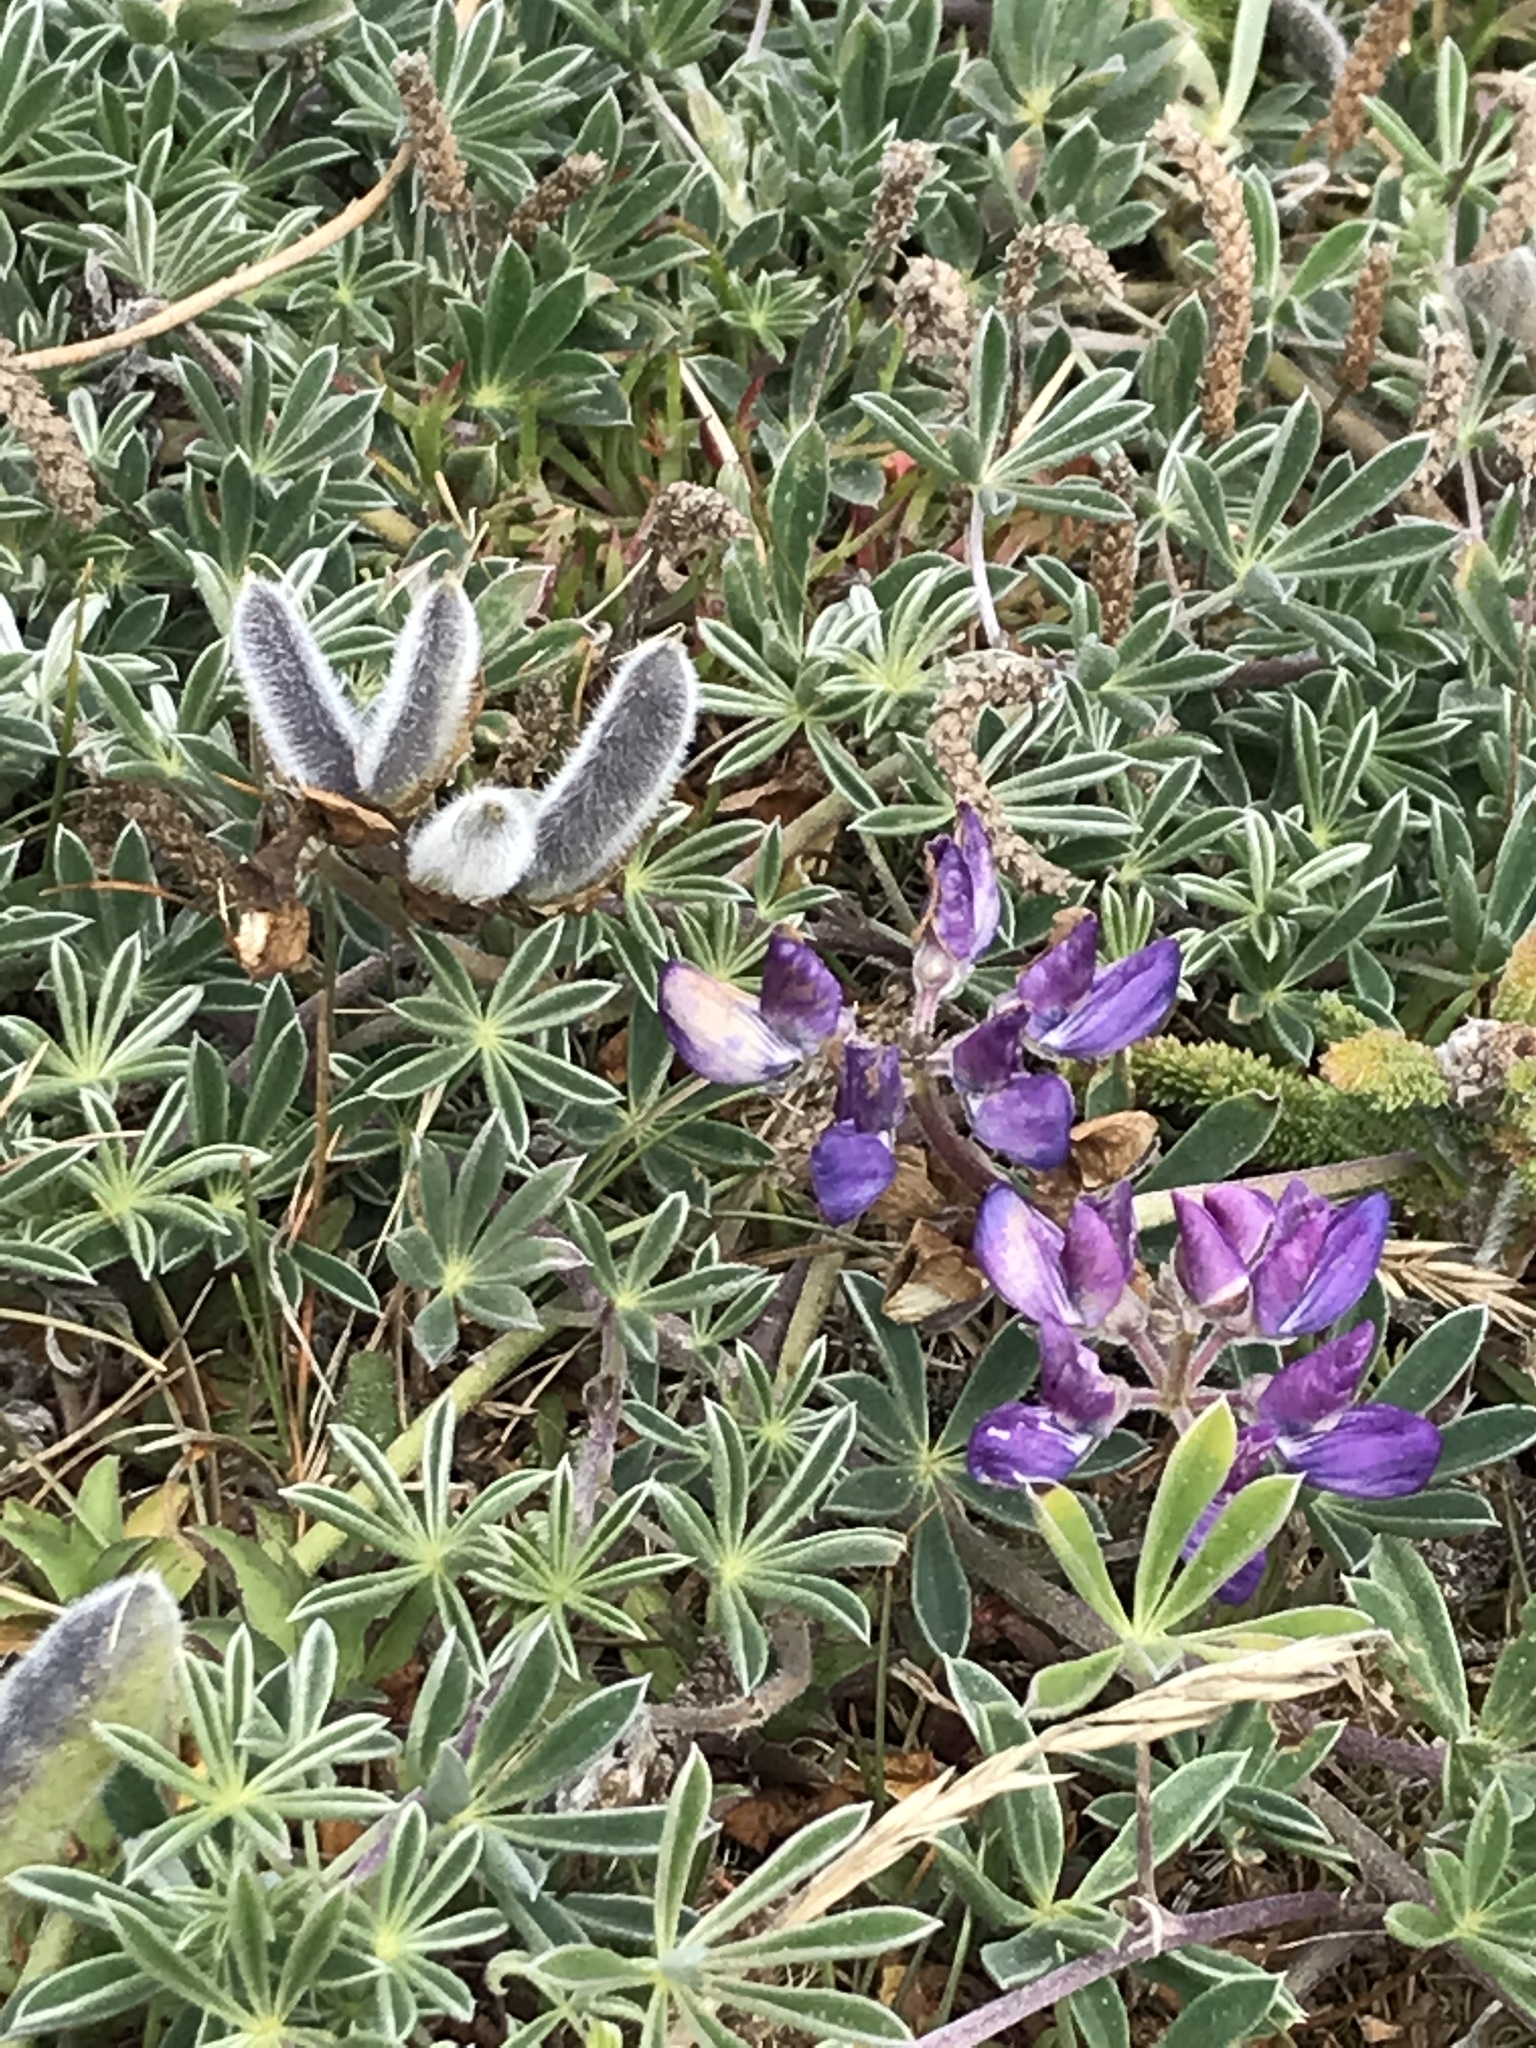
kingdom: Plantae
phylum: Tracheophyta
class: Magnoliopsida
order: Fabales
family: Fabaceae
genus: Lupinus
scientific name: Lupinus littoralis
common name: Seashore lupine
